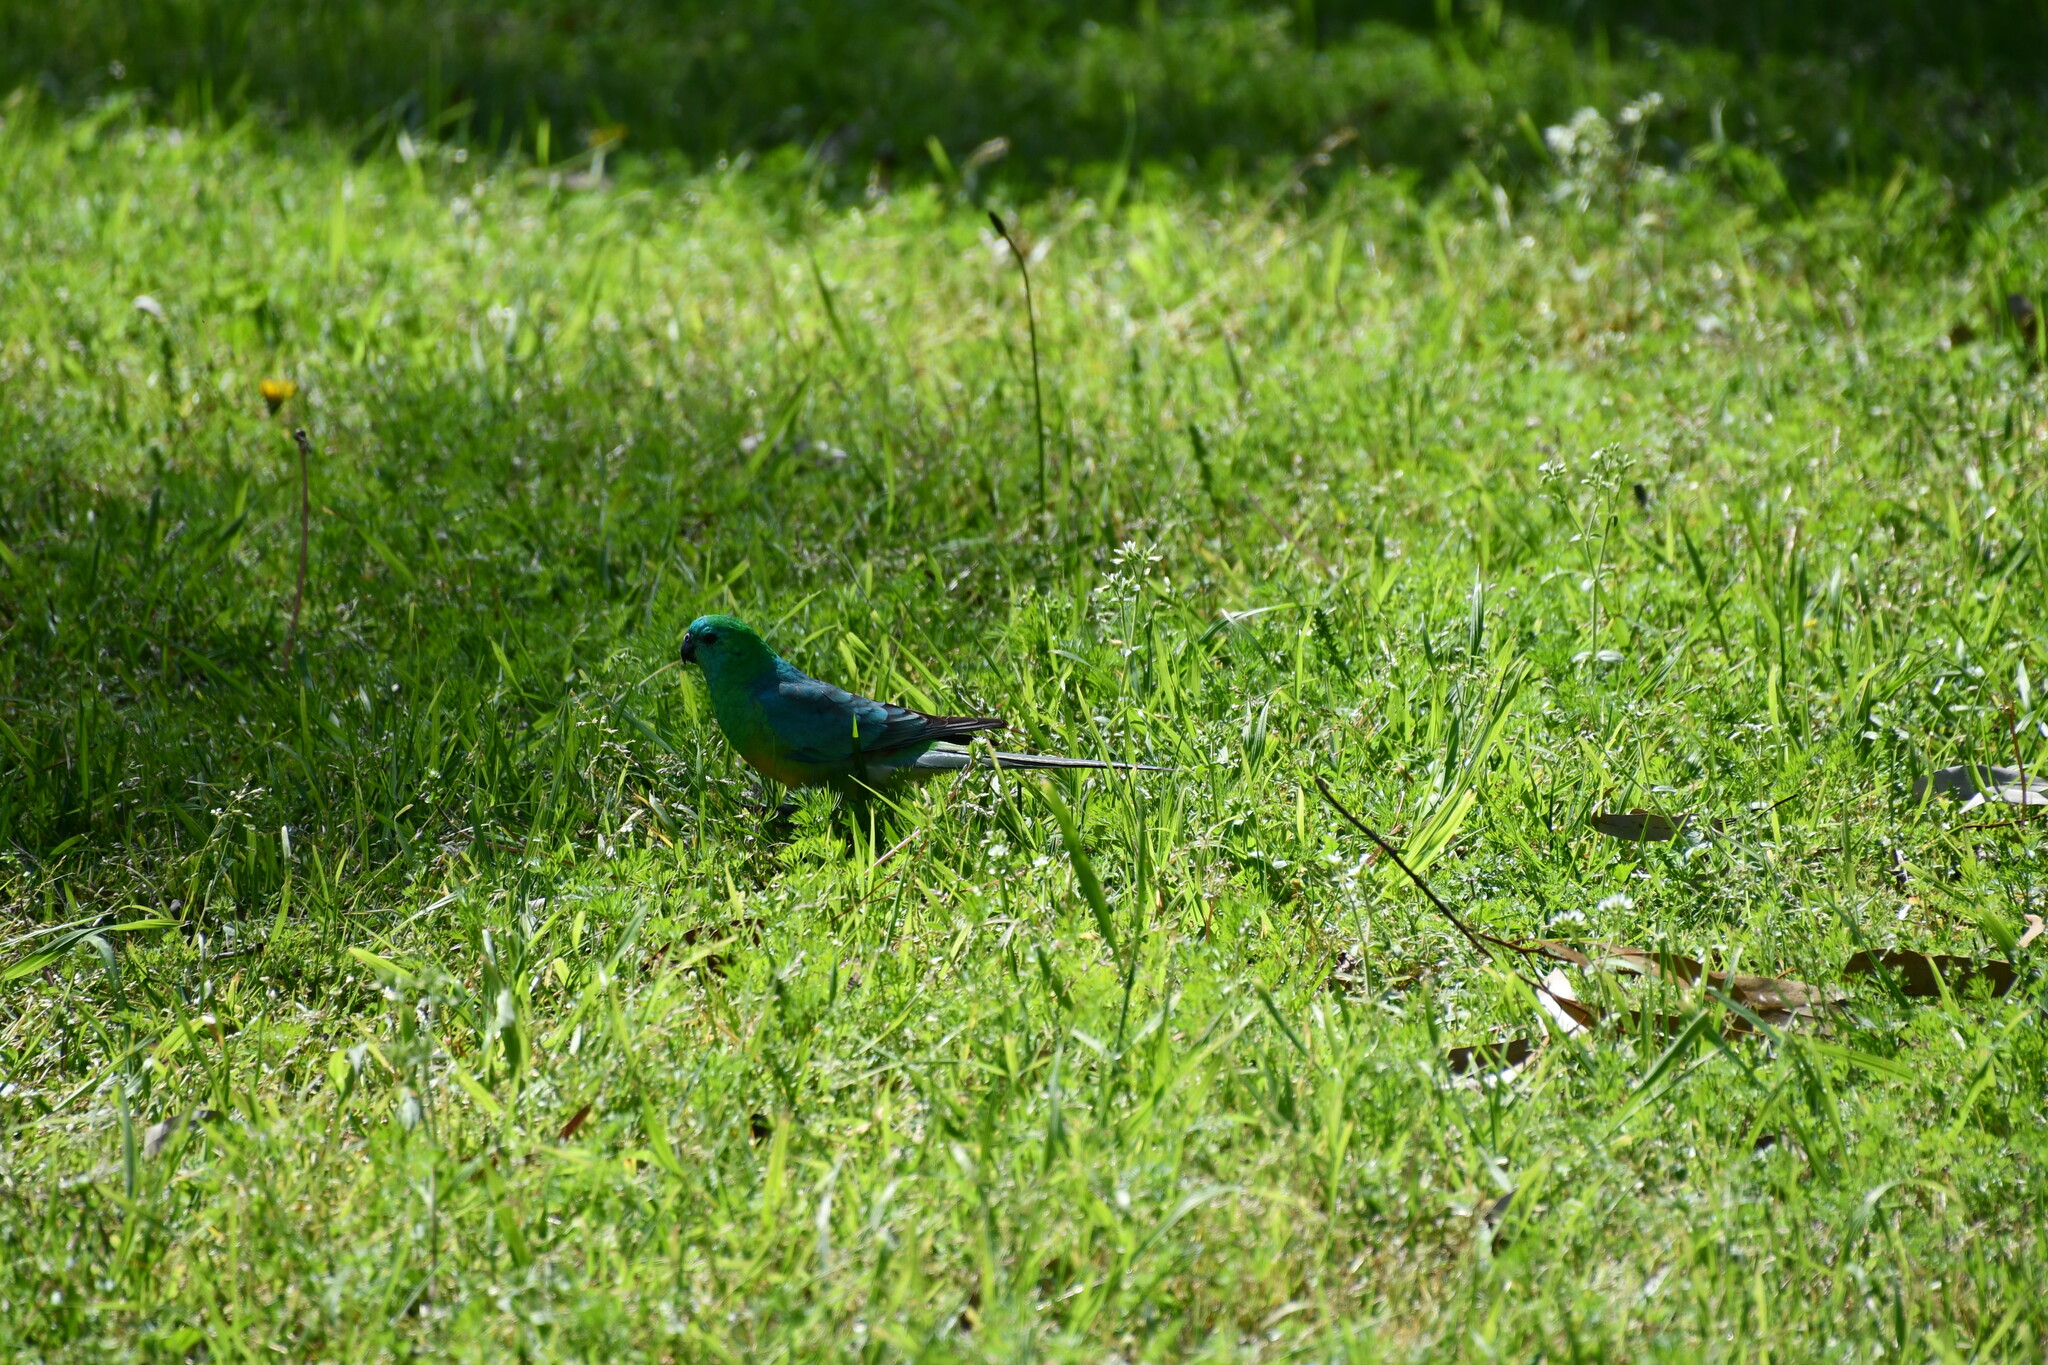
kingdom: Animalia
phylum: Chordata
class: Aves
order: Psittaciformes
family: Psittacidae
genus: Psephotus
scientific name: Psephotus haematonotus
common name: Red-rumped parrot
